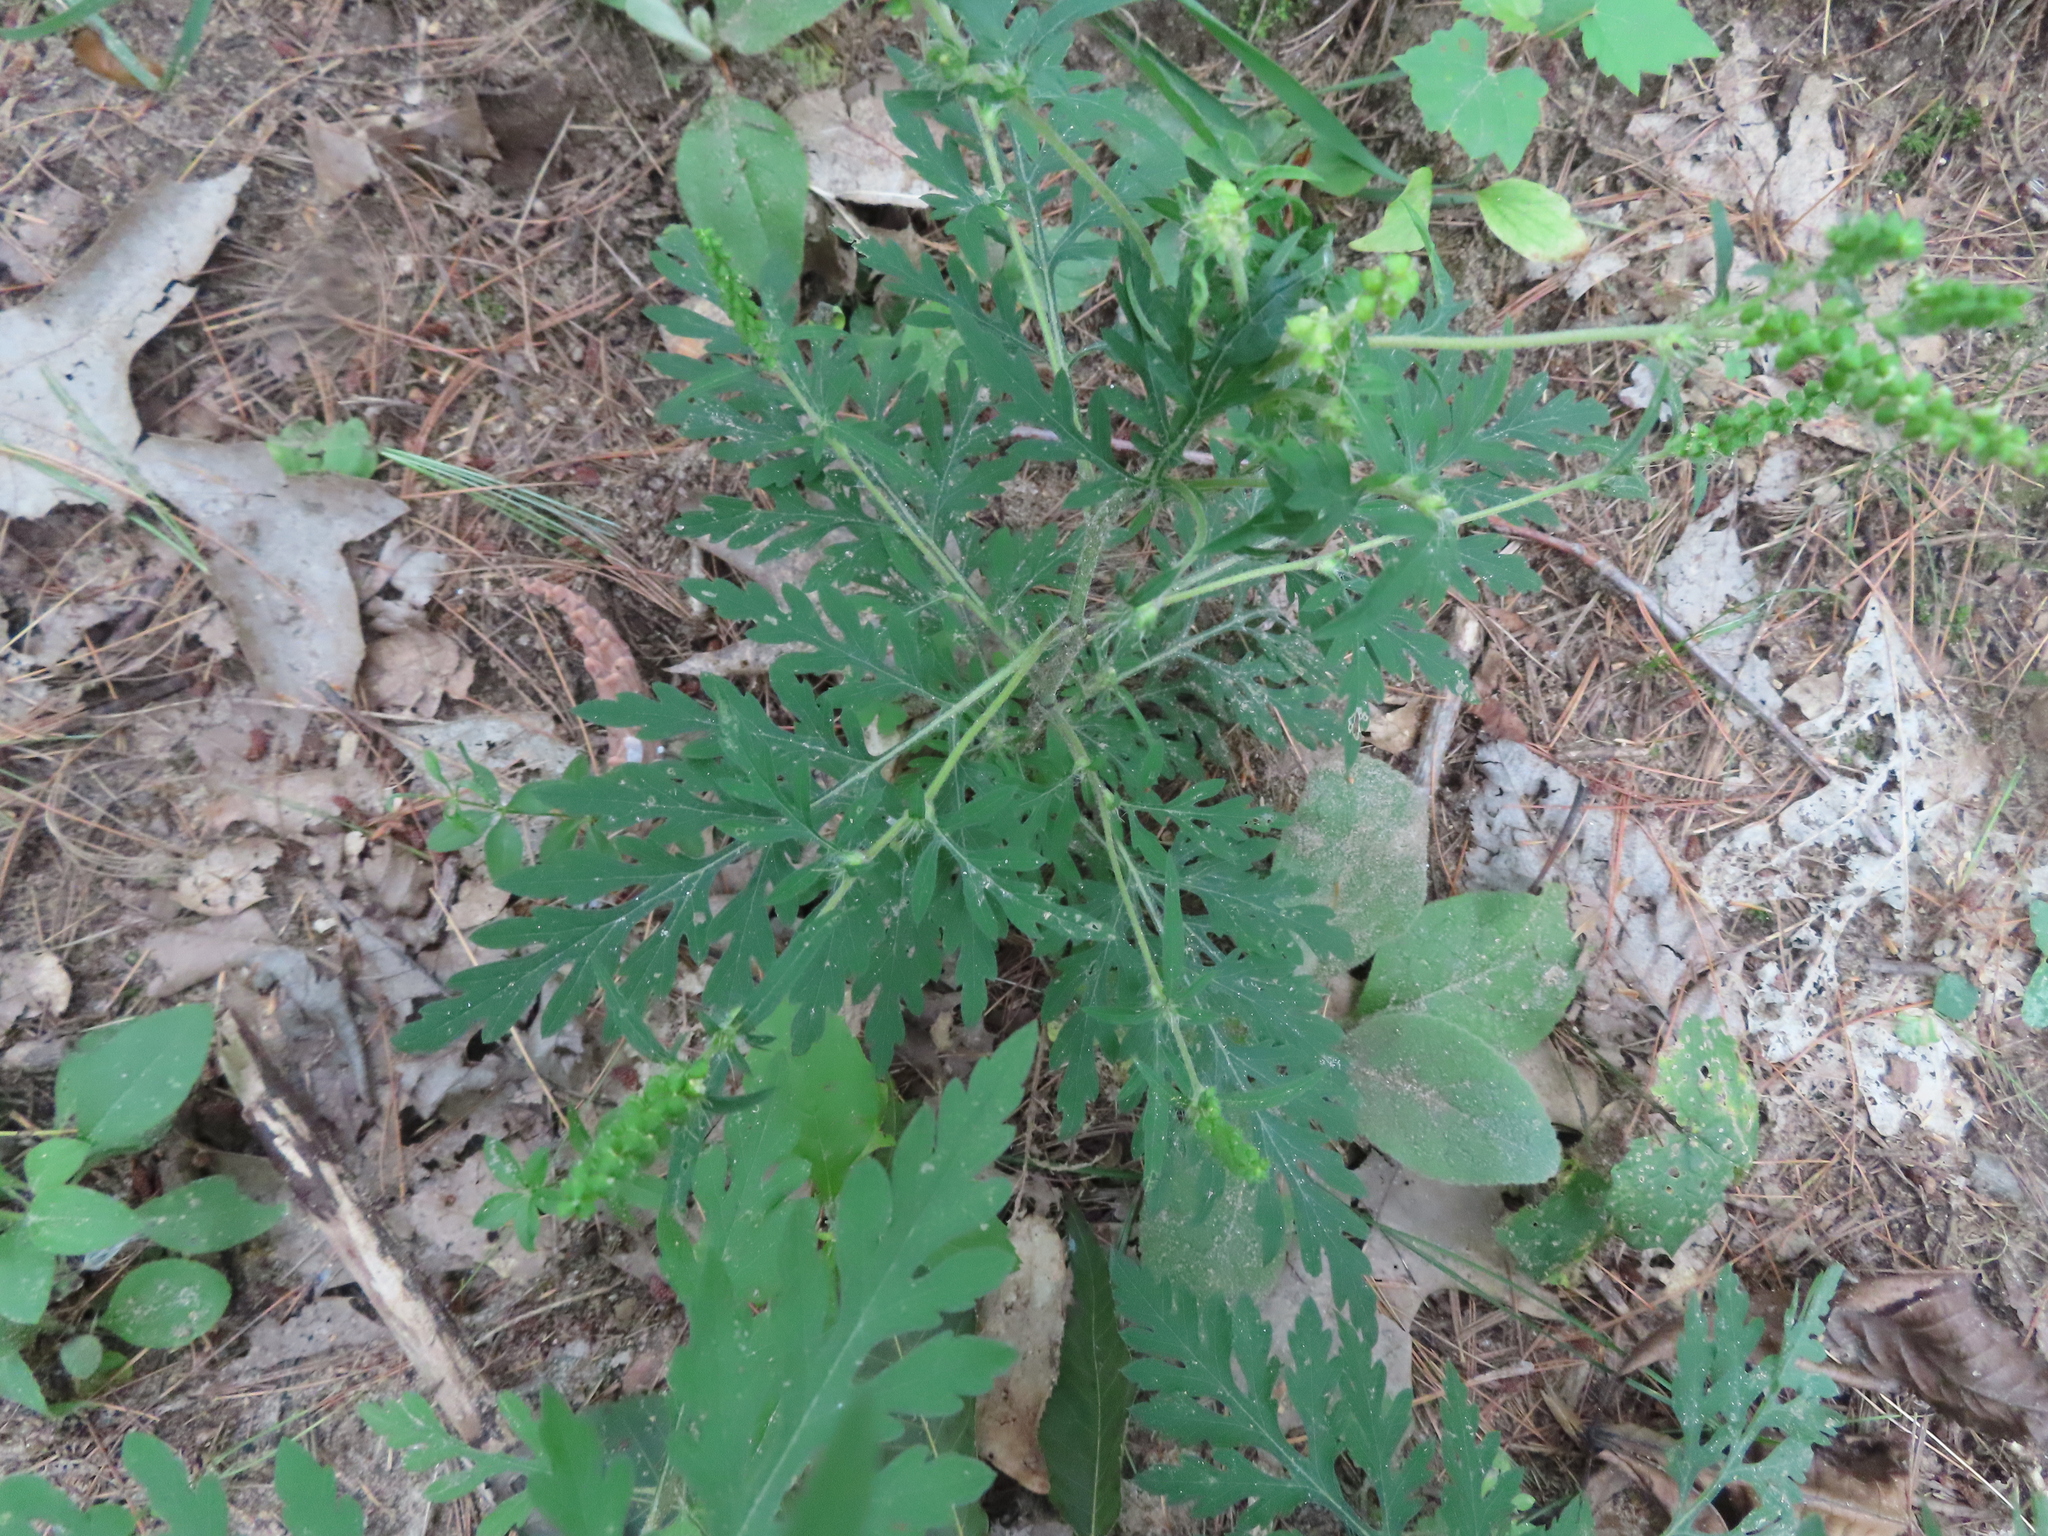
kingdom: Plantae
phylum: Tracheophyta
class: Magnoliopsida
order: Asterales
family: Asteraceae
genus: Ambrosia
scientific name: Ambrosia artemisiifolia
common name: Annual ragweed
